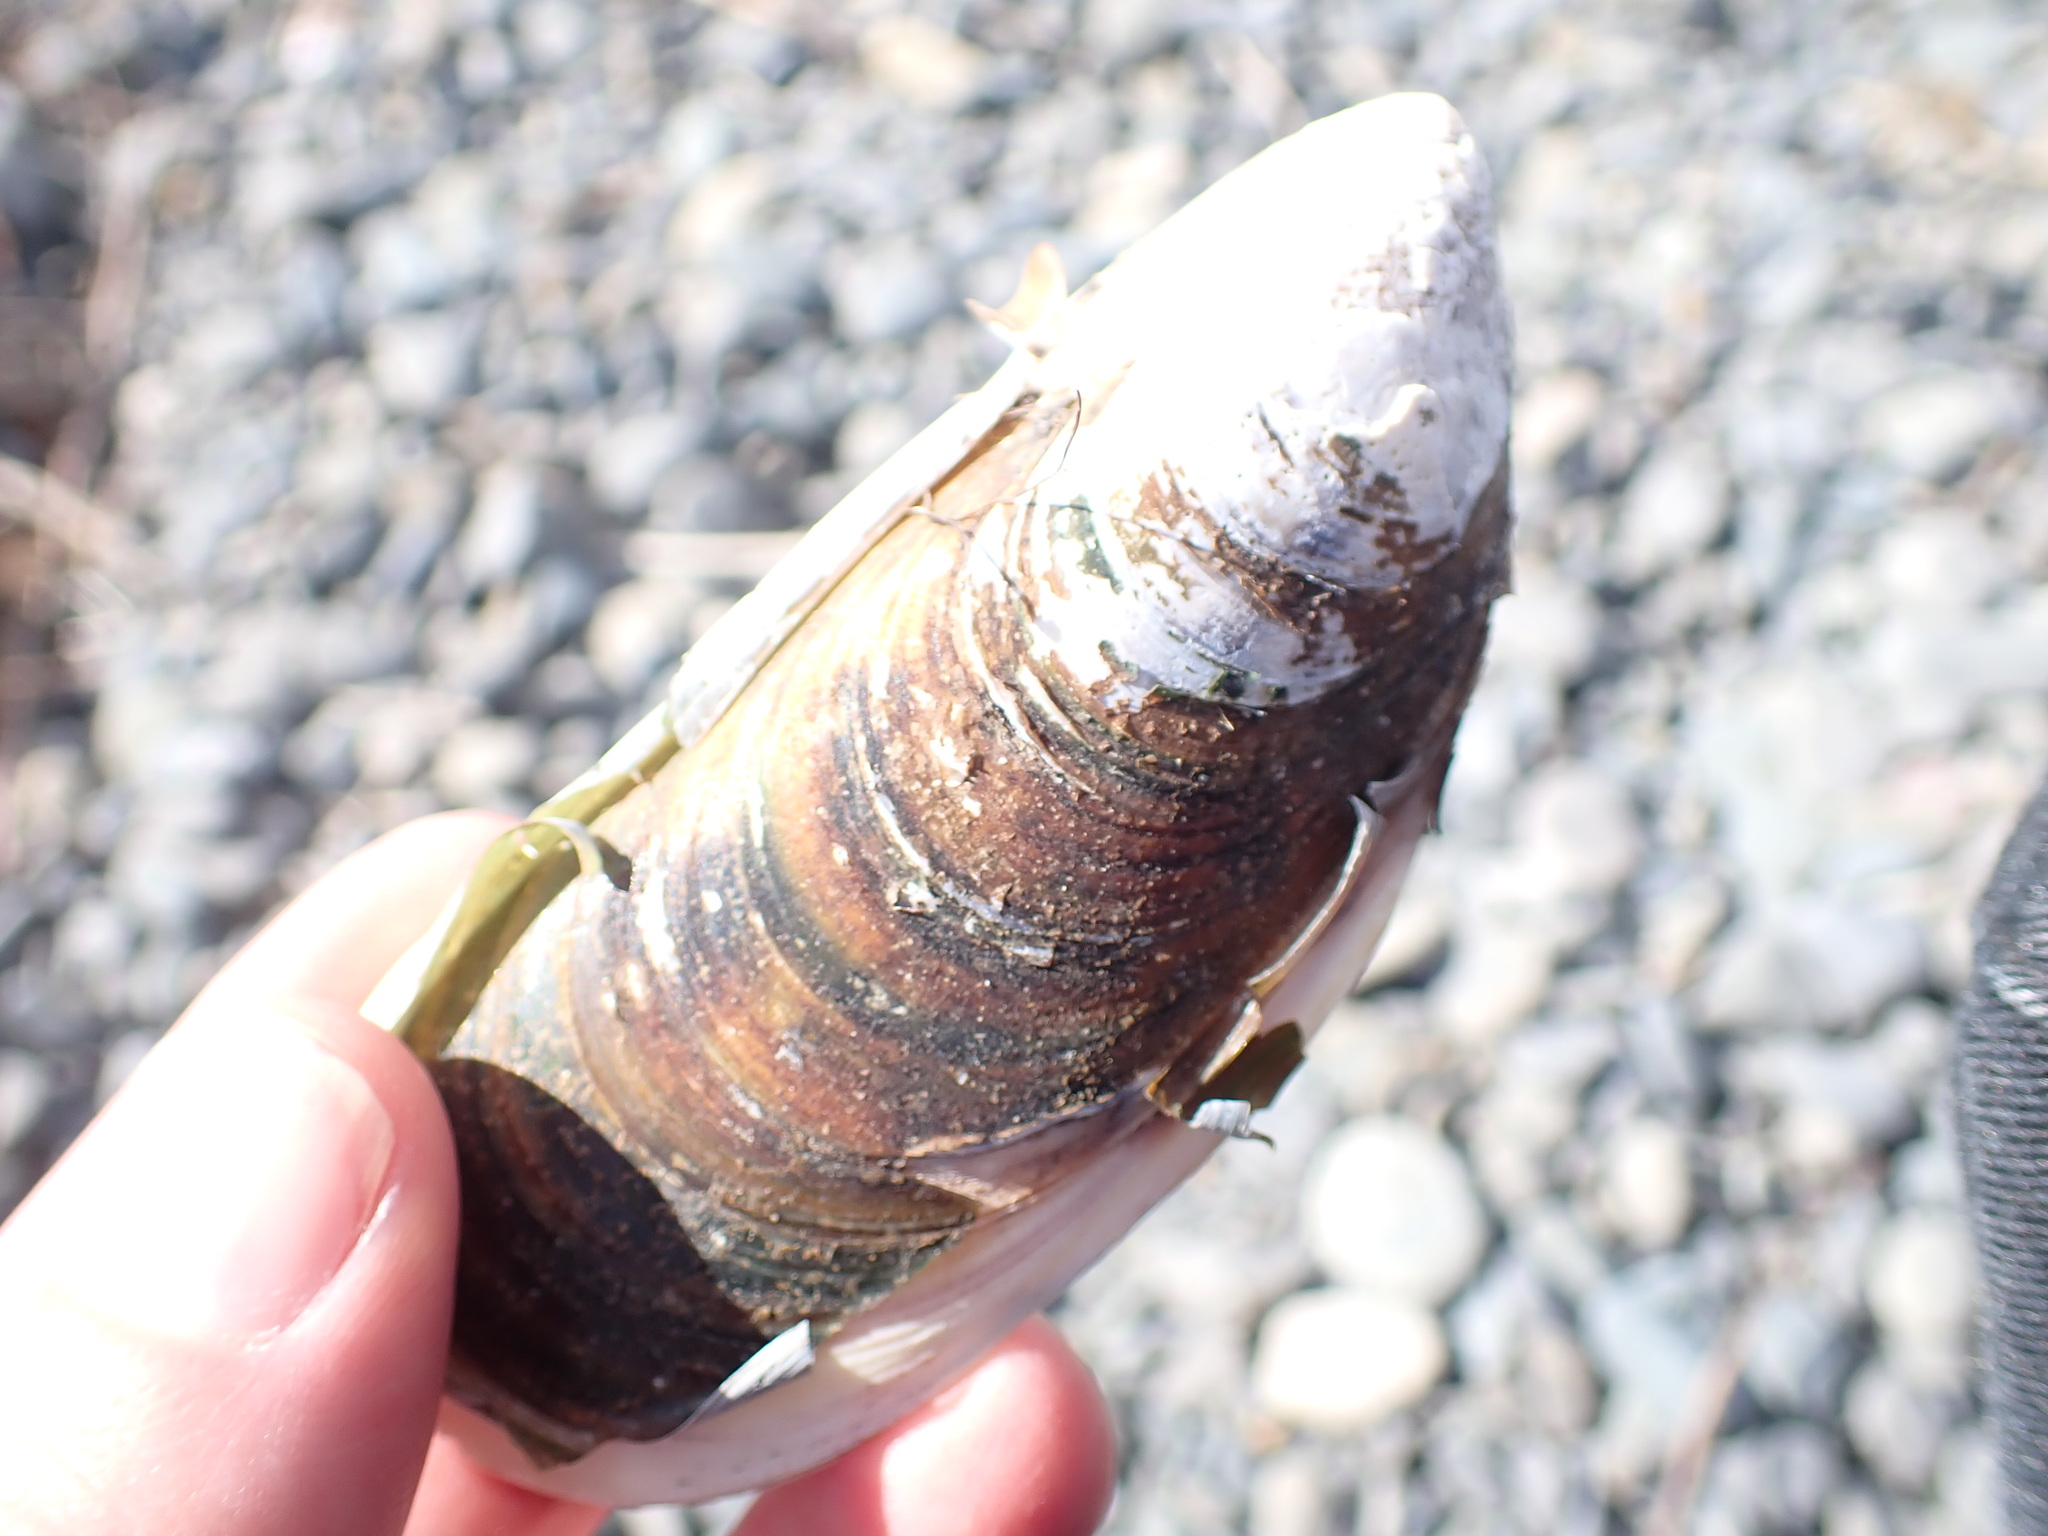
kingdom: Animalia
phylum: Mollusca
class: Bivalvia
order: Mytilida
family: Mytilidae
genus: Perna
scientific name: Perna canaliculus
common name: New zealand greenshelltm
